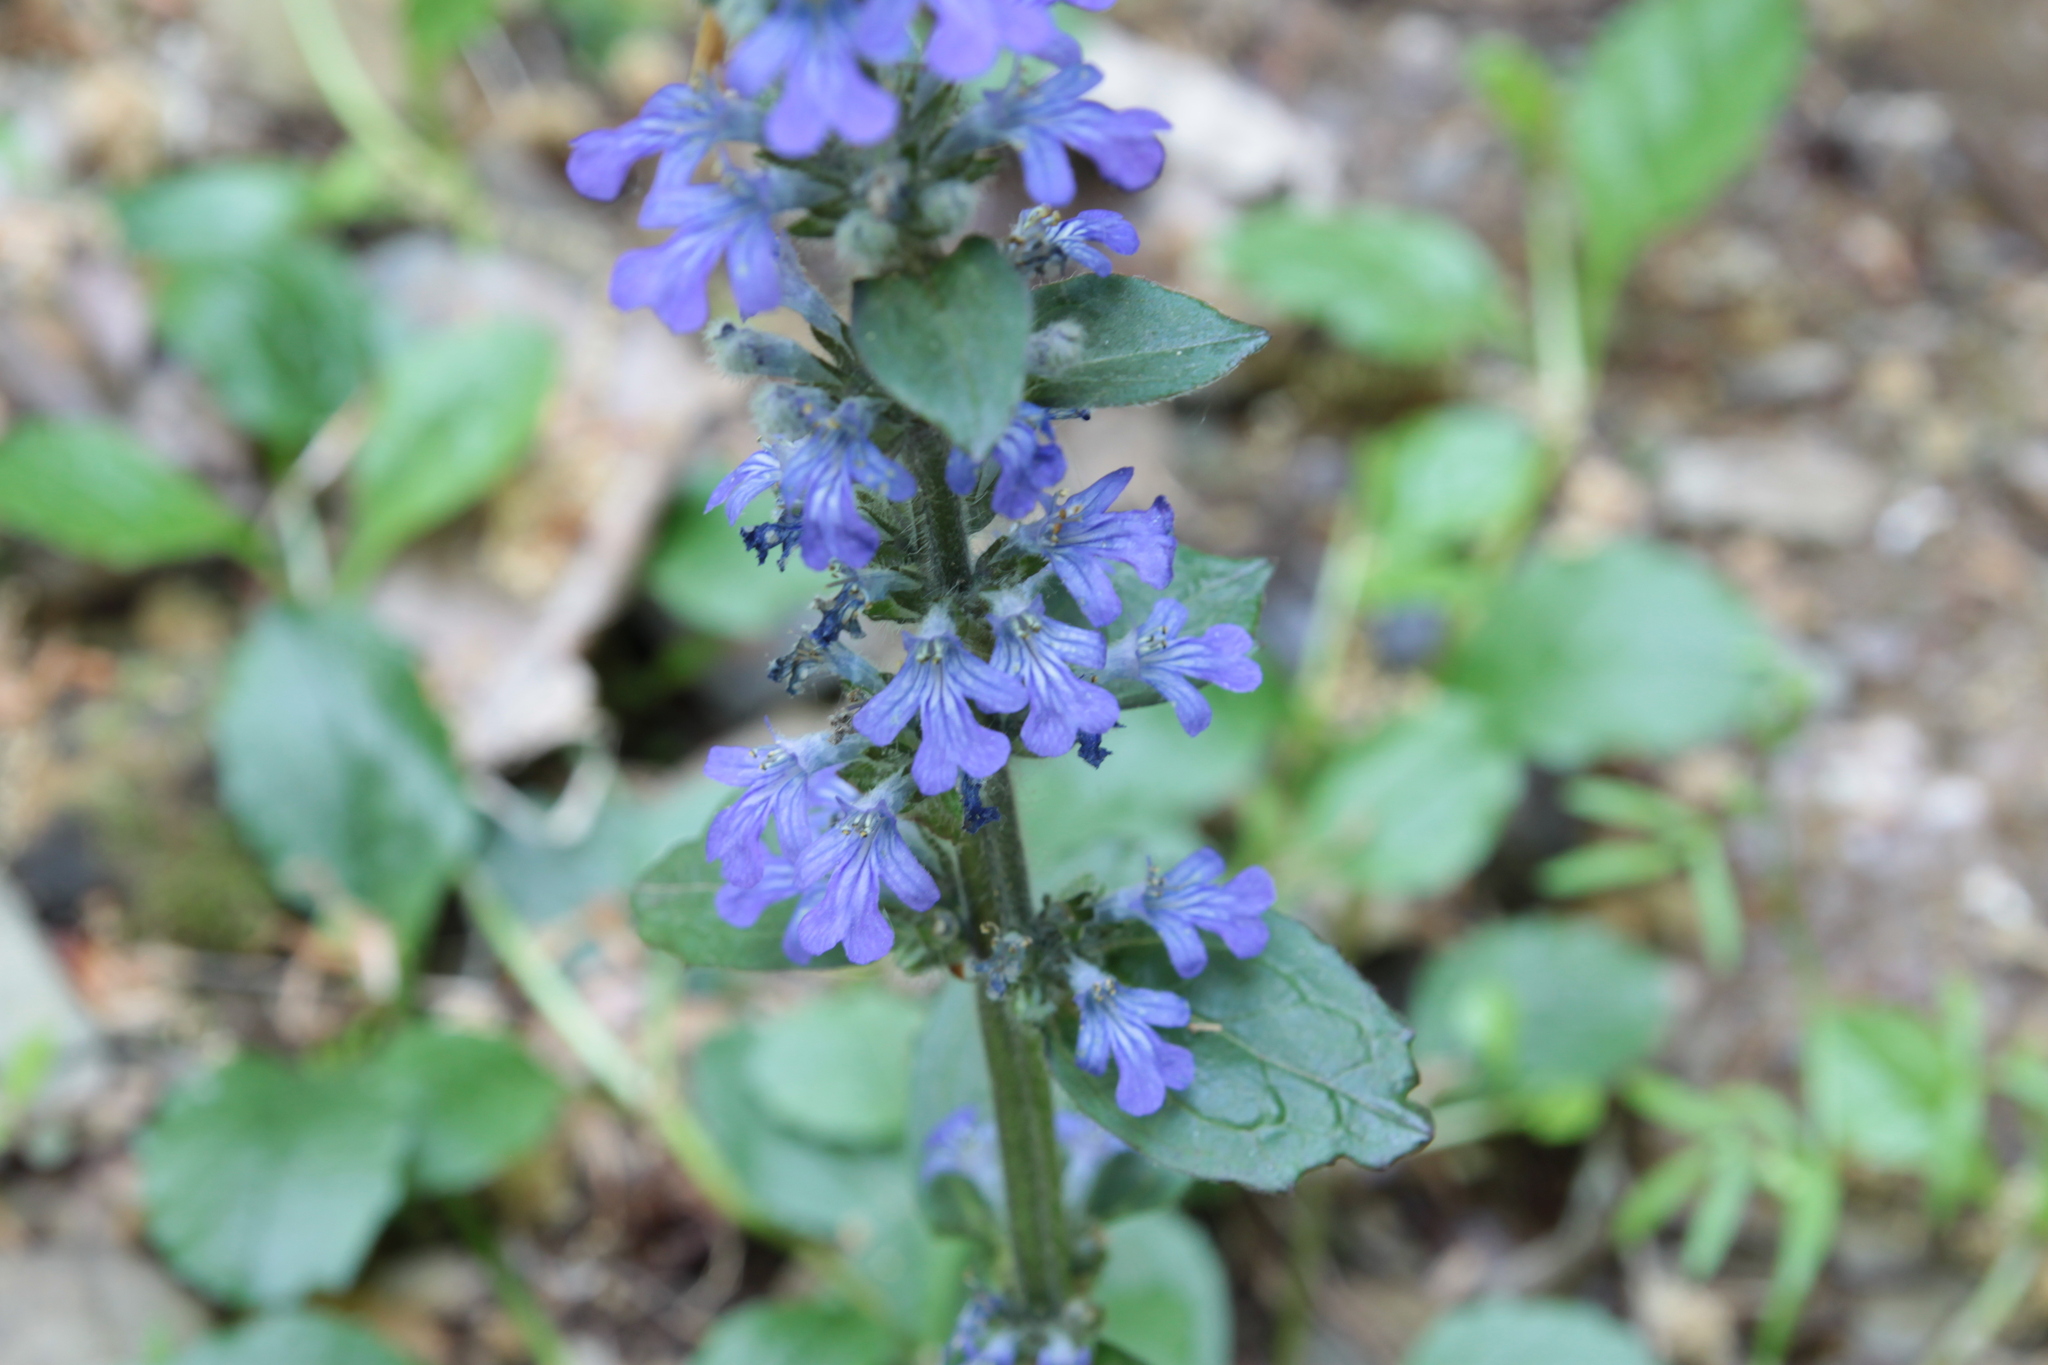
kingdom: Plantae
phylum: Tracheophyta
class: Magnoliopsida
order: Lamiales
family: Lamiaceae
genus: Ajuga
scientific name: Ajuga reptans
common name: Bugle
